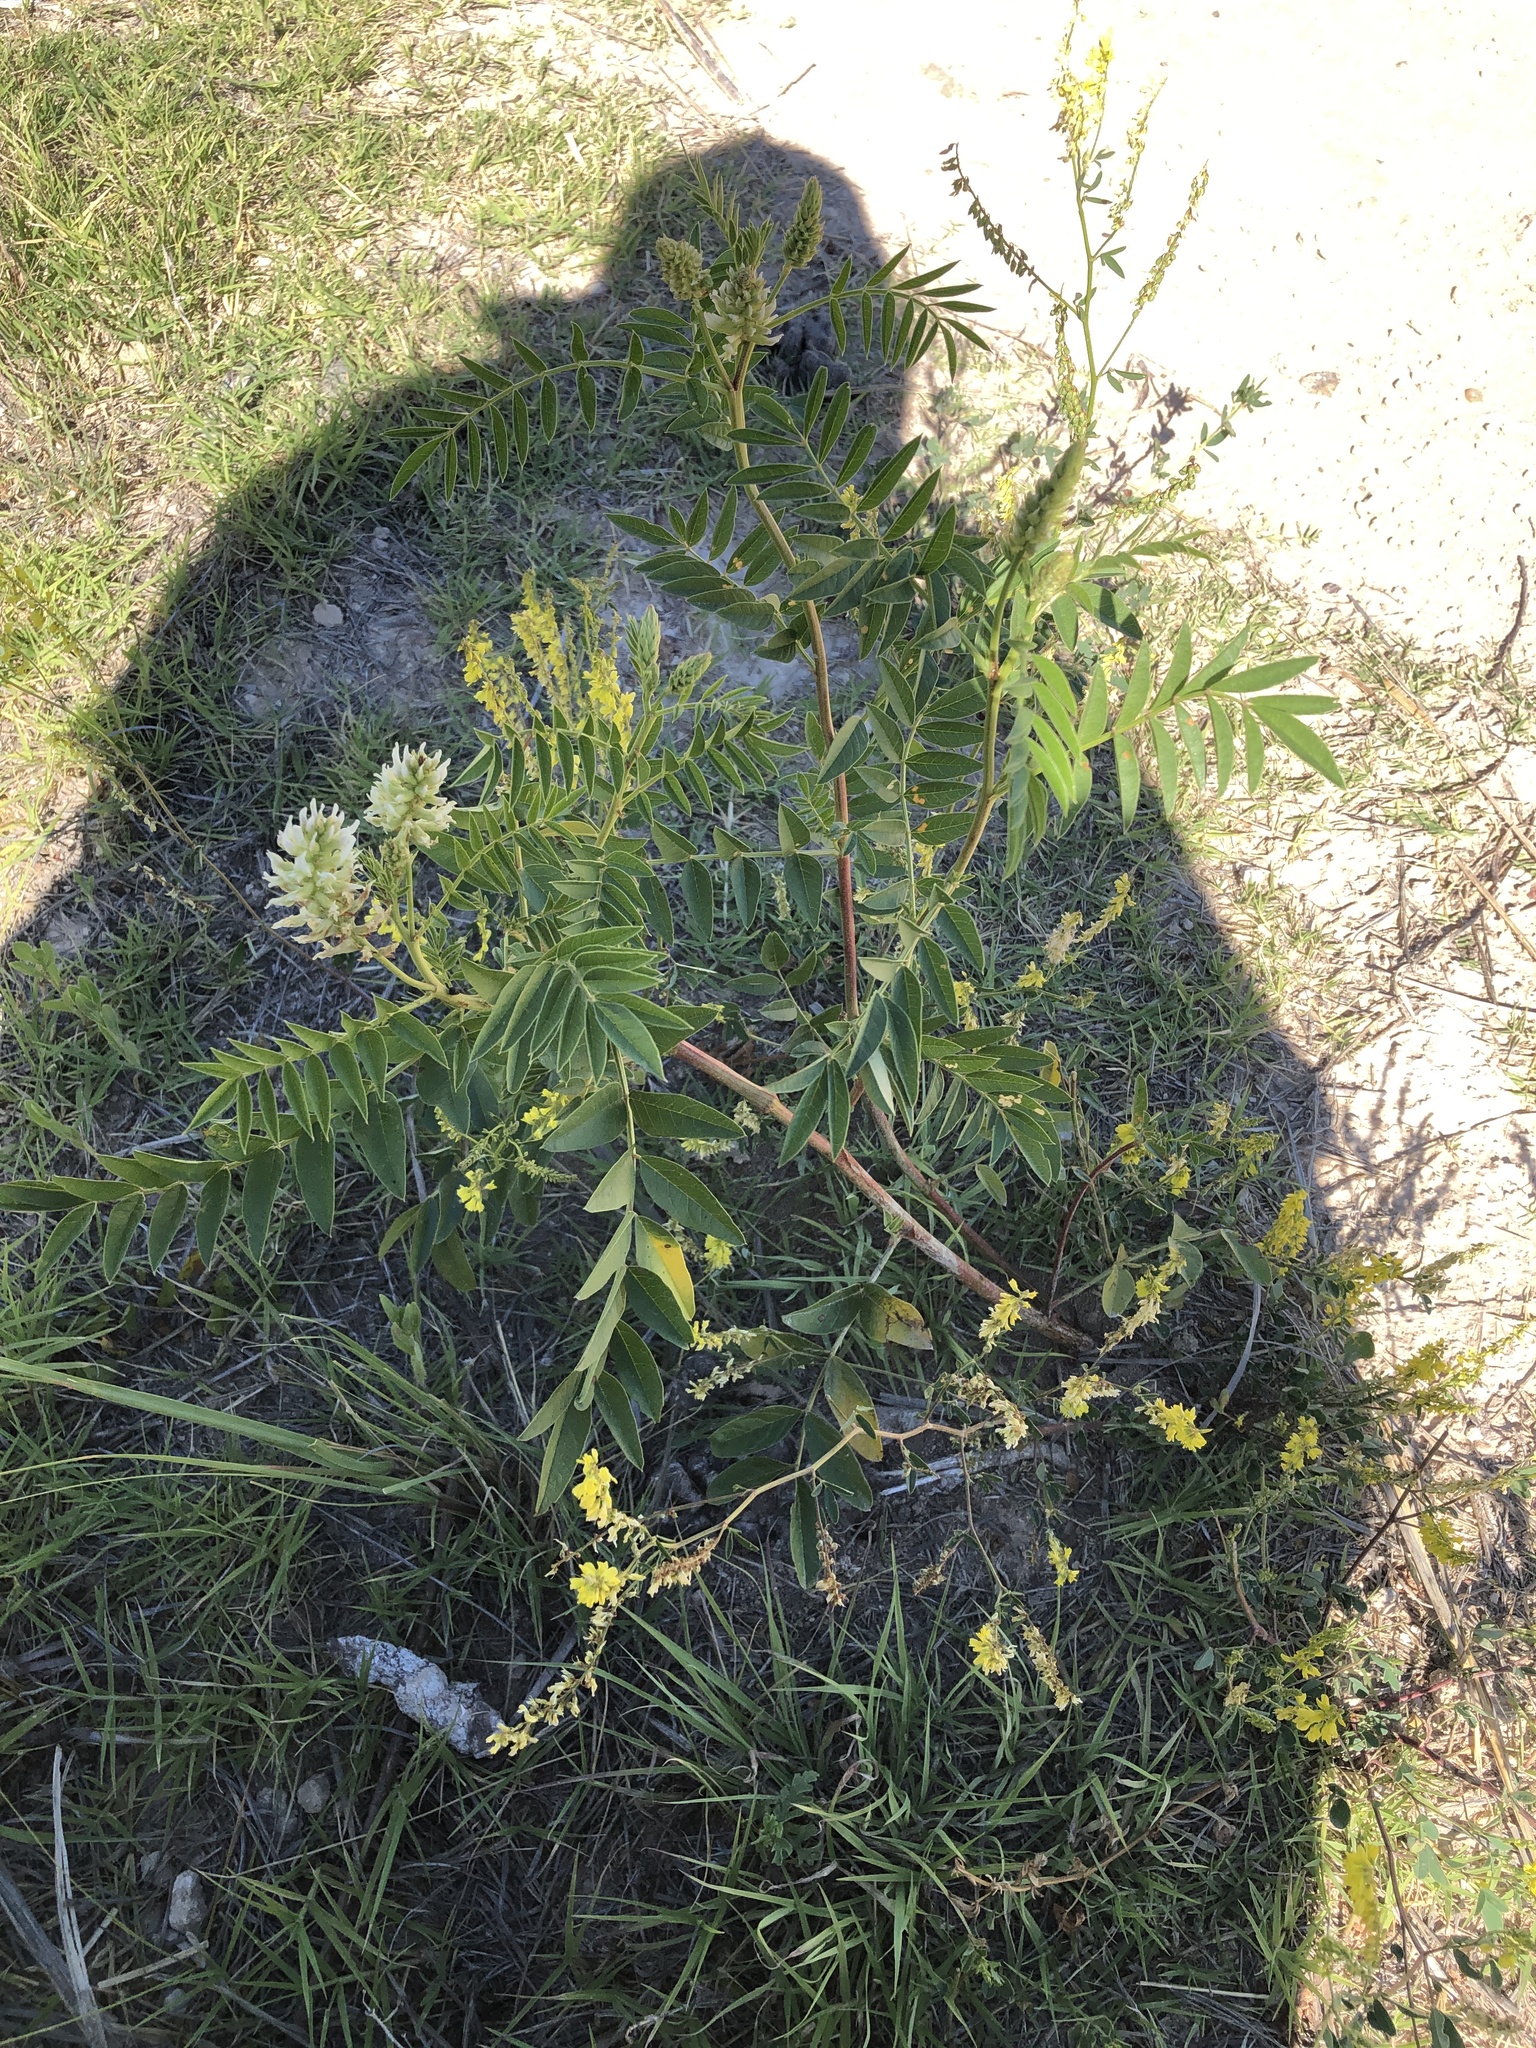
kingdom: Plantae
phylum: Tracheophyta
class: Magnoliopsida
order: Fabales
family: Fabaceae
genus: Glycyrrhiza
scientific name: Glycyrrhiza lepidota
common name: American liquorice
